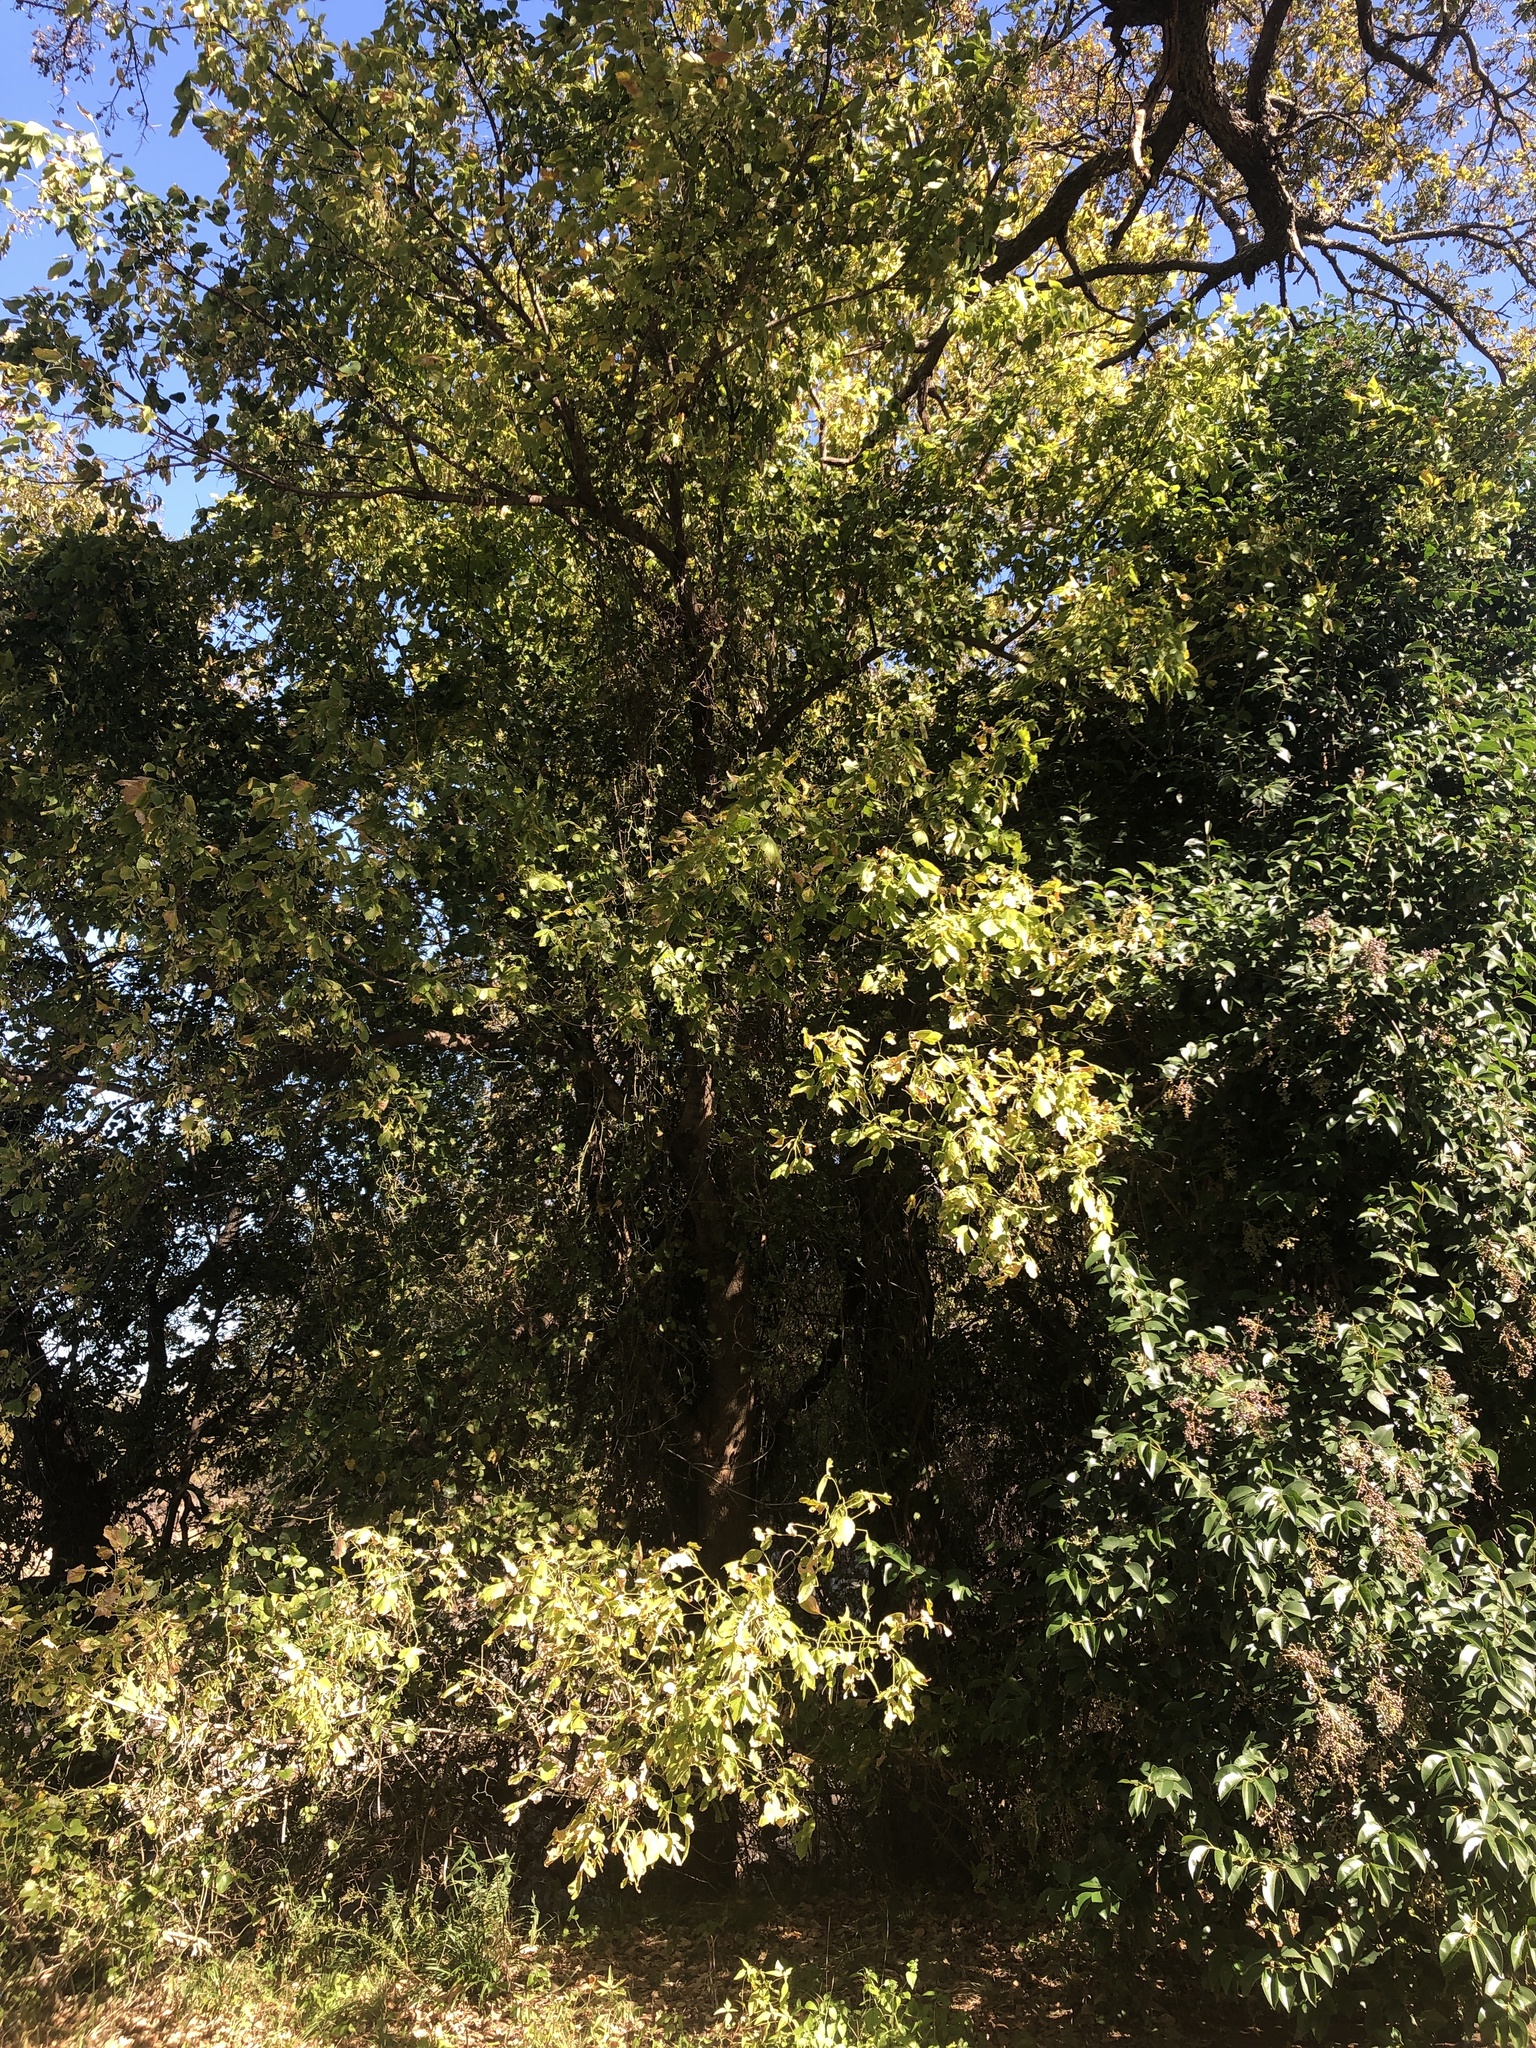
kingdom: Plantae
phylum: Tracheophyta
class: Magnoliopsida
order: Sapindales
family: Sapindaceae
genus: Acer
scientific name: Acer negundo
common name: Ashleaf maple
